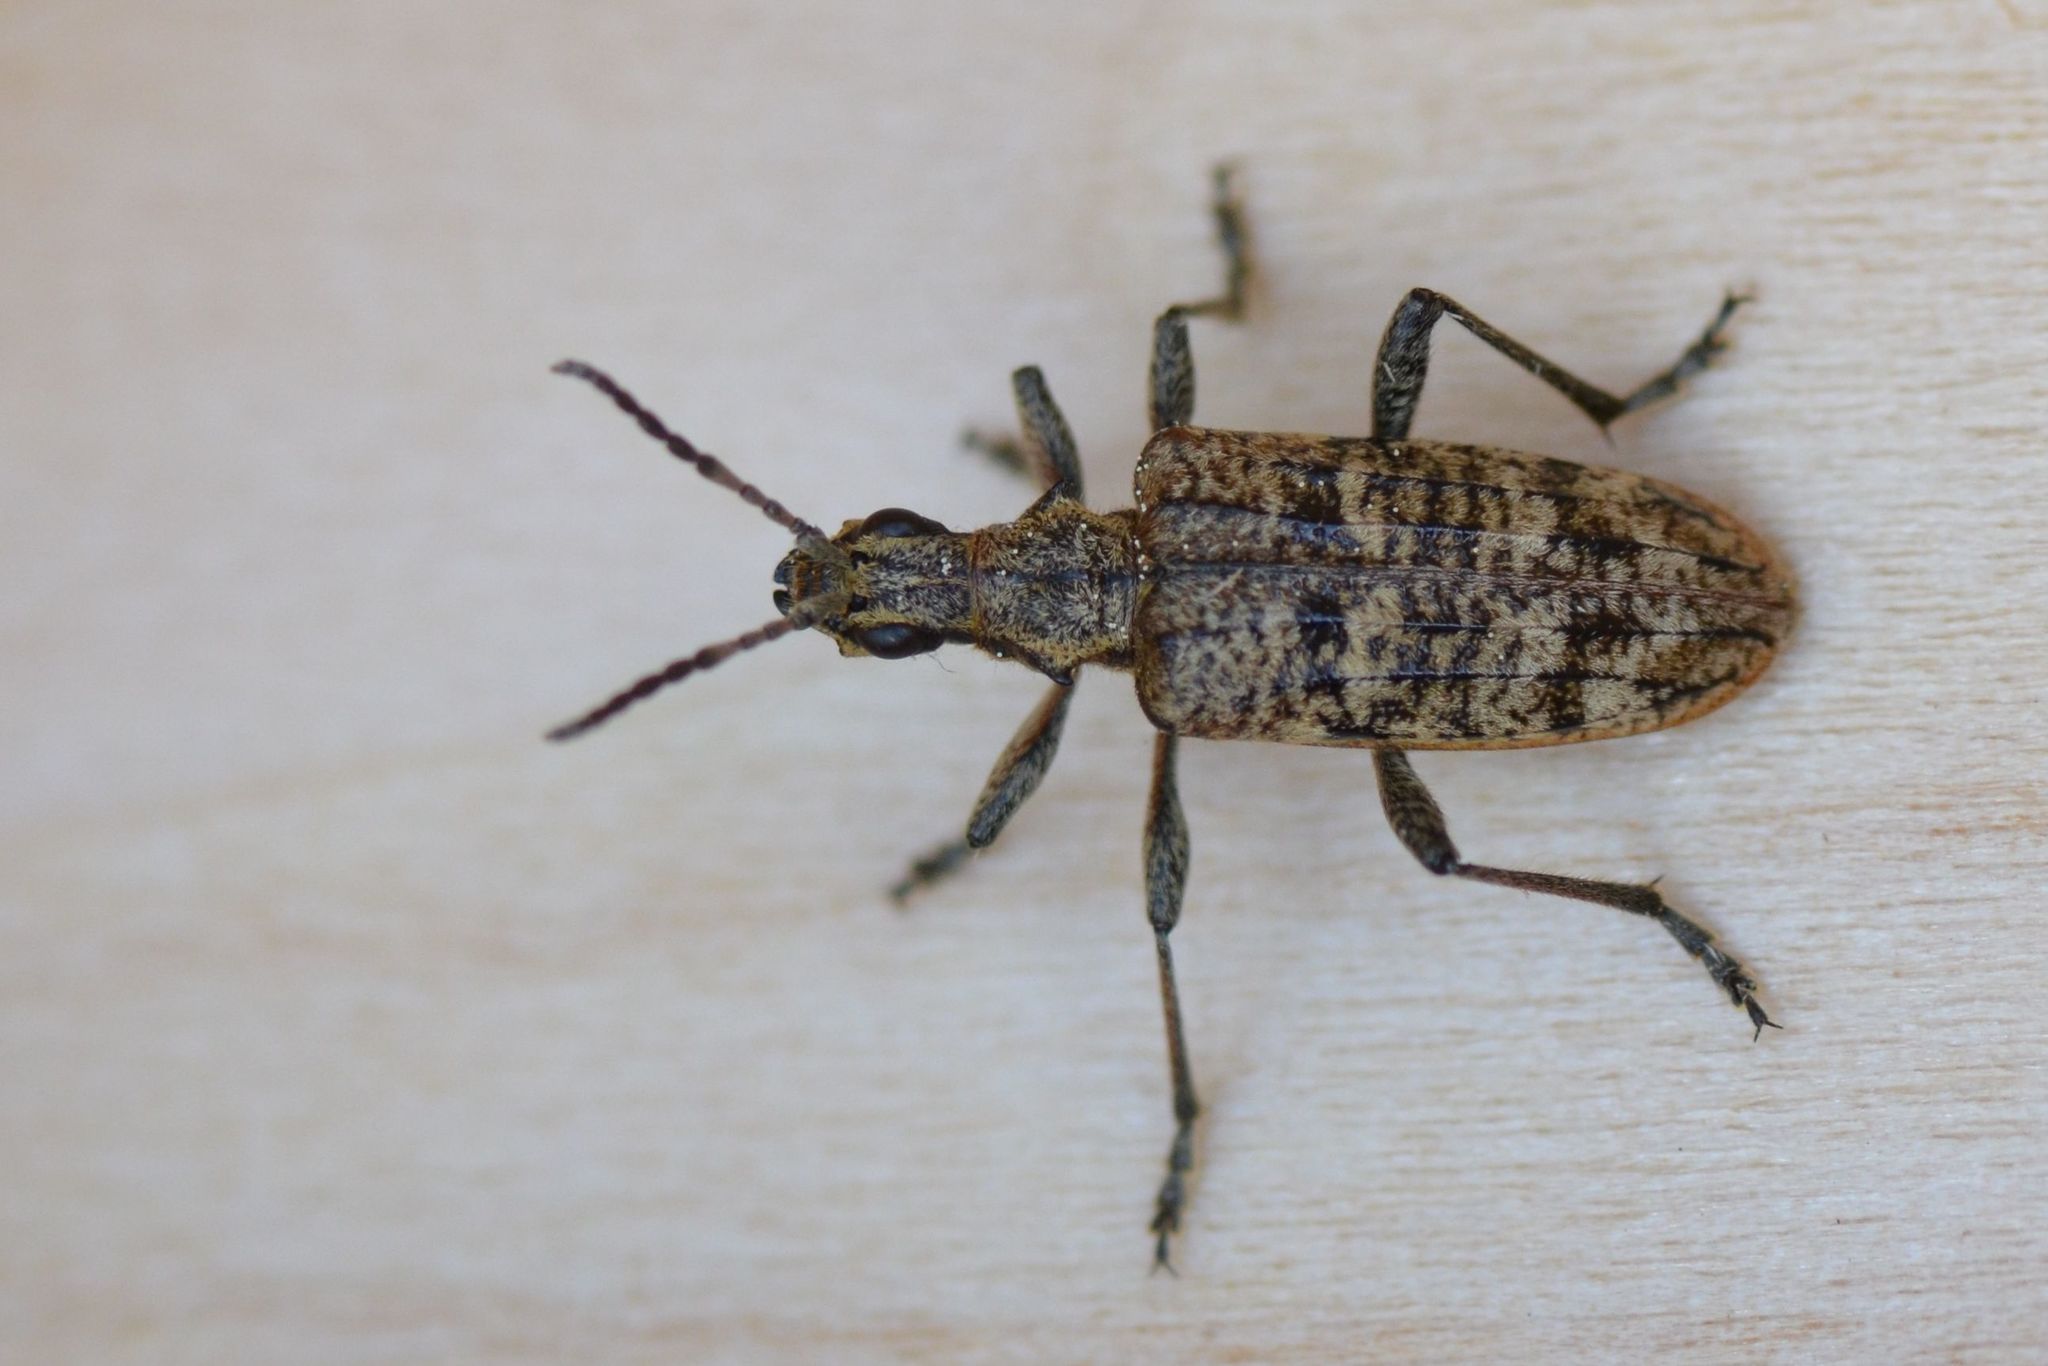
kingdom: Animalia
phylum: Arthropoda
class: Insecta
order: Coleoptera
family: Cerambycidae
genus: Rhagium
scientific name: Rhagium inquisitor
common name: Ribbed pine borer
